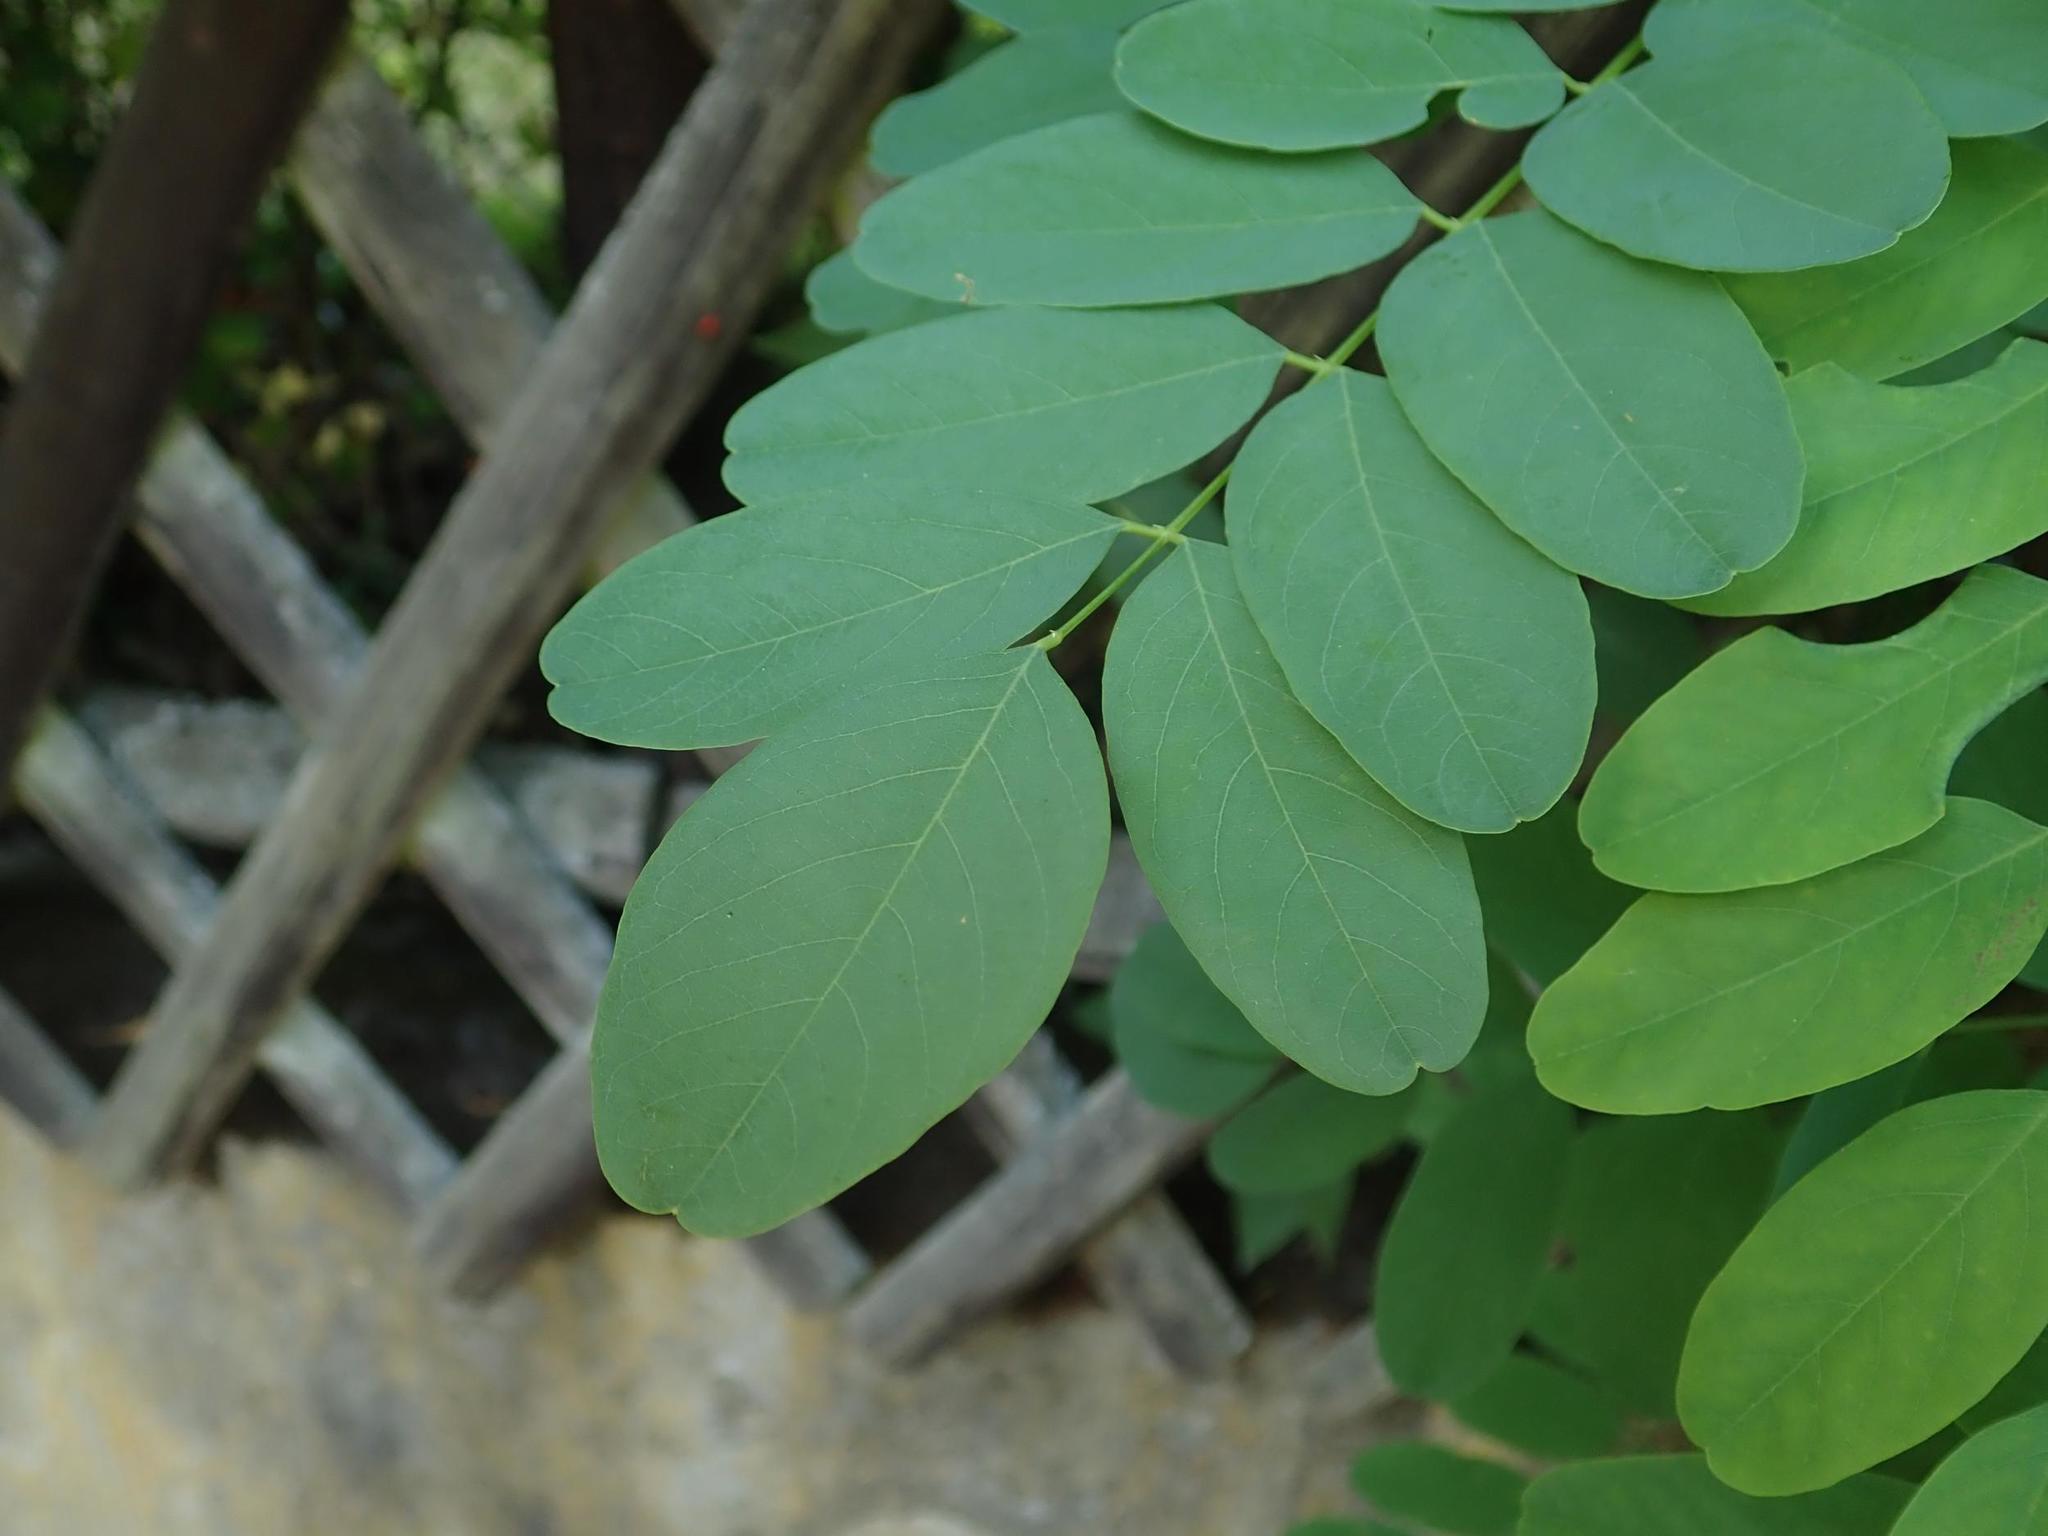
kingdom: Plantae
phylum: Tracheophyta
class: Magnoliopsida
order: Fabales
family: Fabaceae
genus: Robinia
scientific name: Robinia pseudoacacia
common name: Black locust
